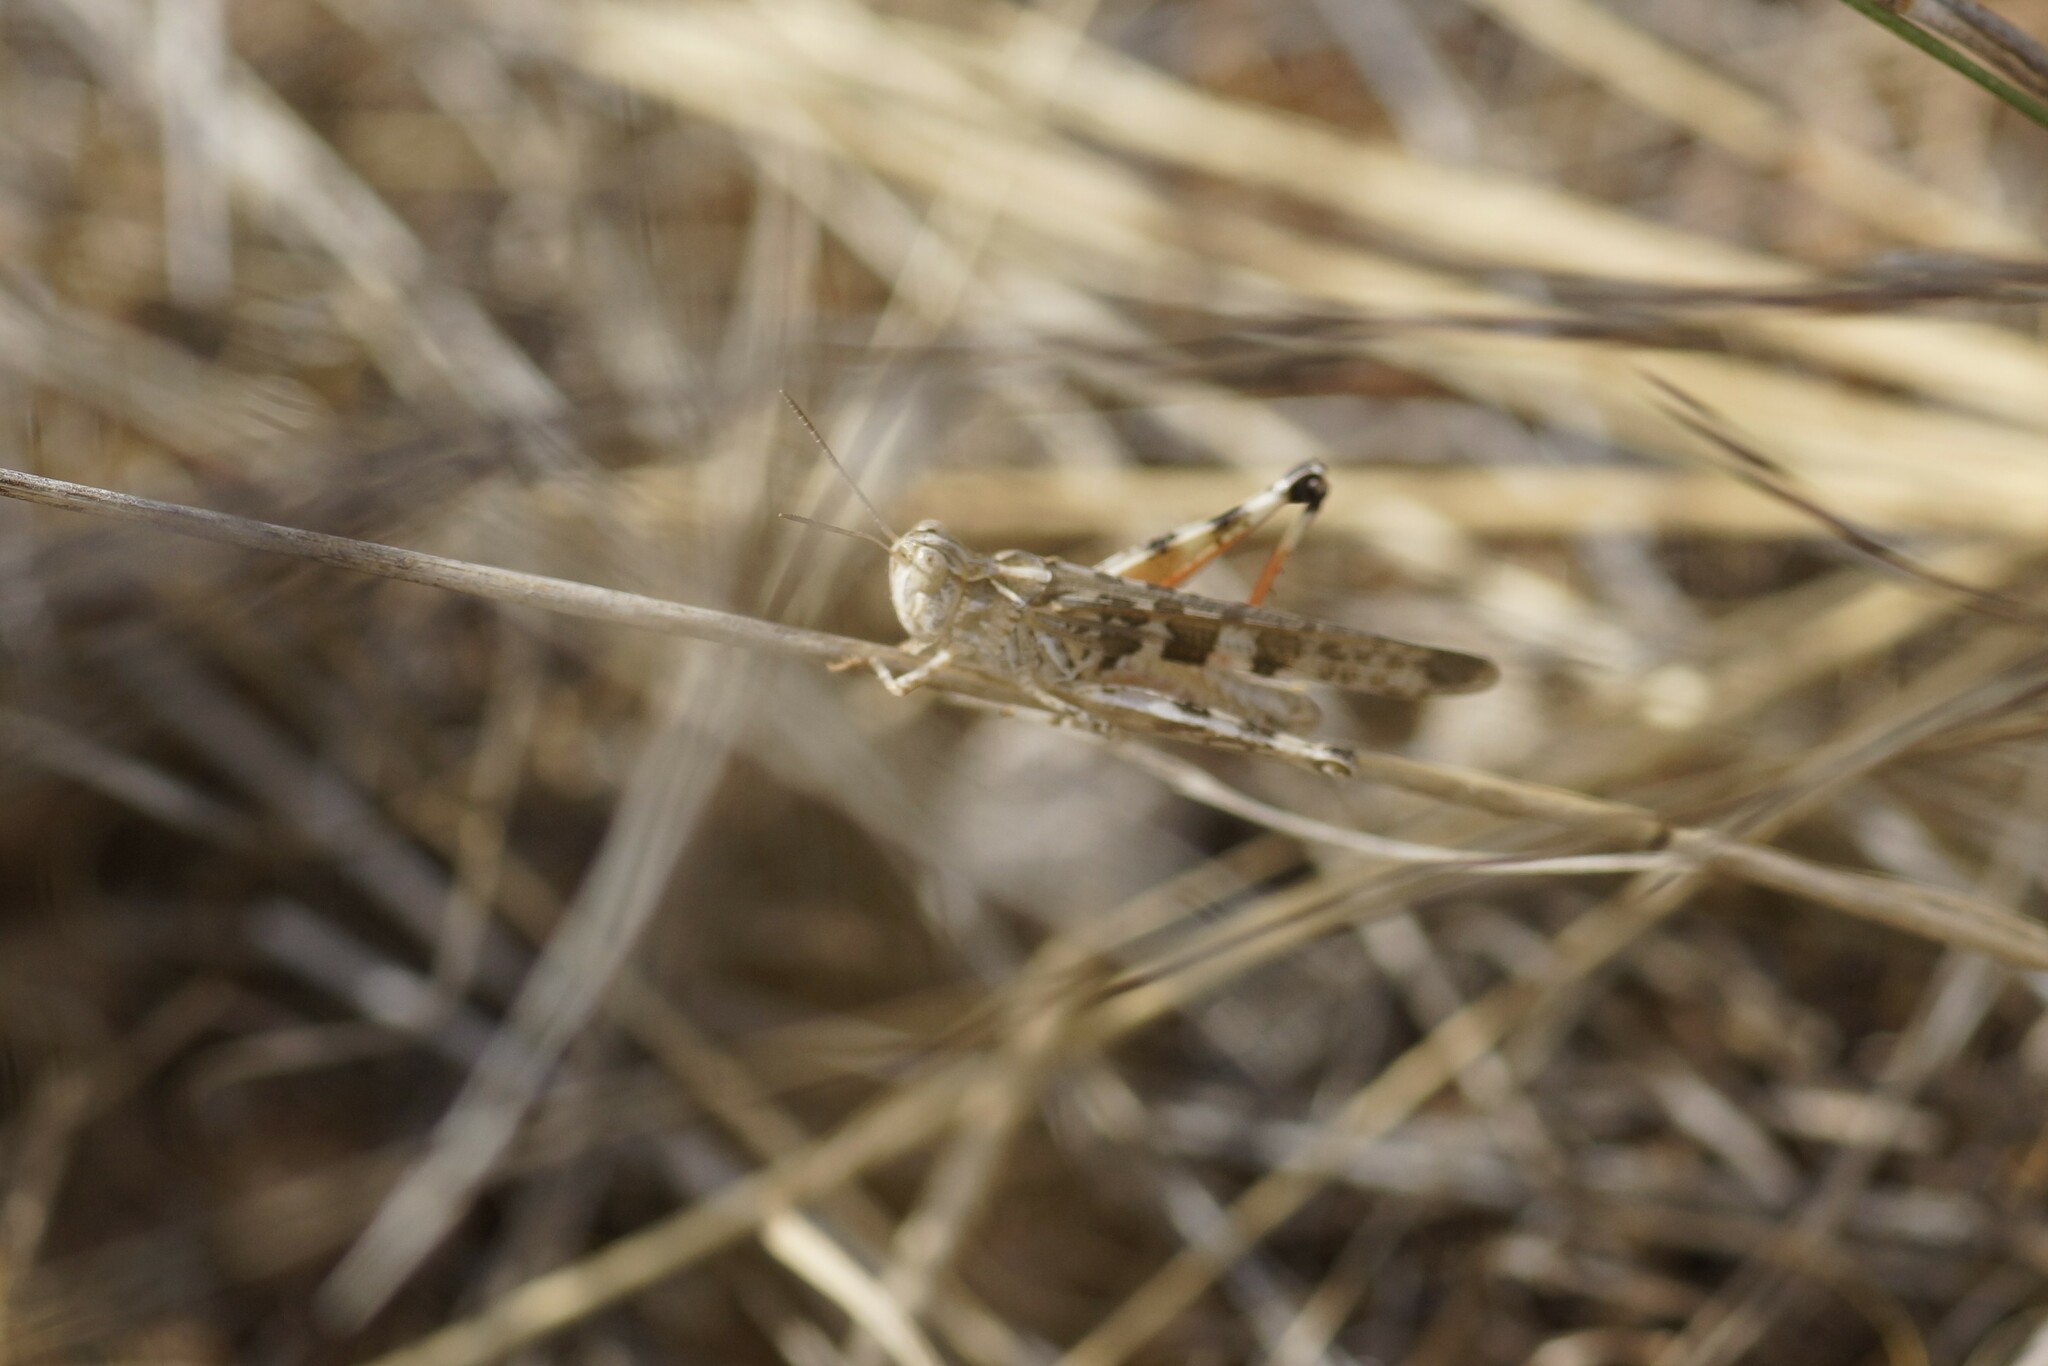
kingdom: Animalia
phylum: Arthropoda
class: Insecta
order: Orthoptera
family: Acrididae
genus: Chortoicetes
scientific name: Chortoicetes terminifera
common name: Australian plague locust
